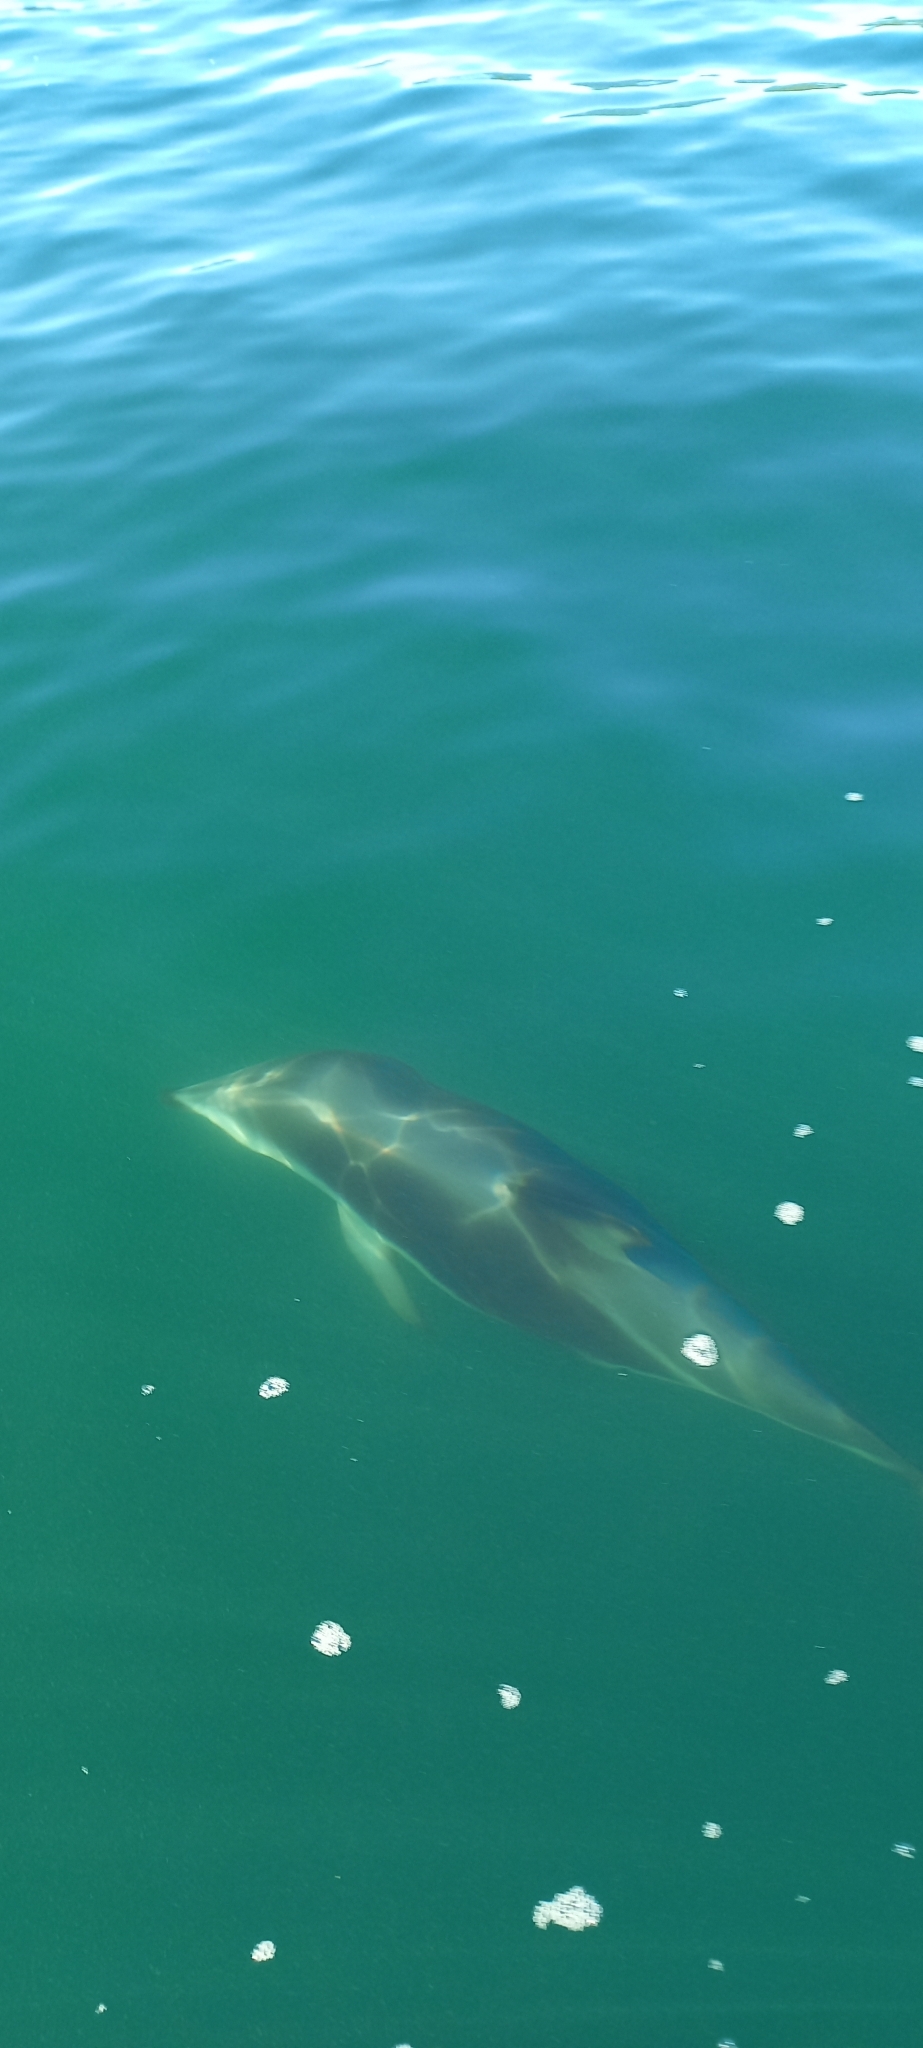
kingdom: Animalia
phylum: Chordata
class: Mammalia
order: Cetacea
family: Delphinidae
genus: Lagenorhynchus
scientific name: Lagenorhynchus obscurus
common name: Dusky dolphin
